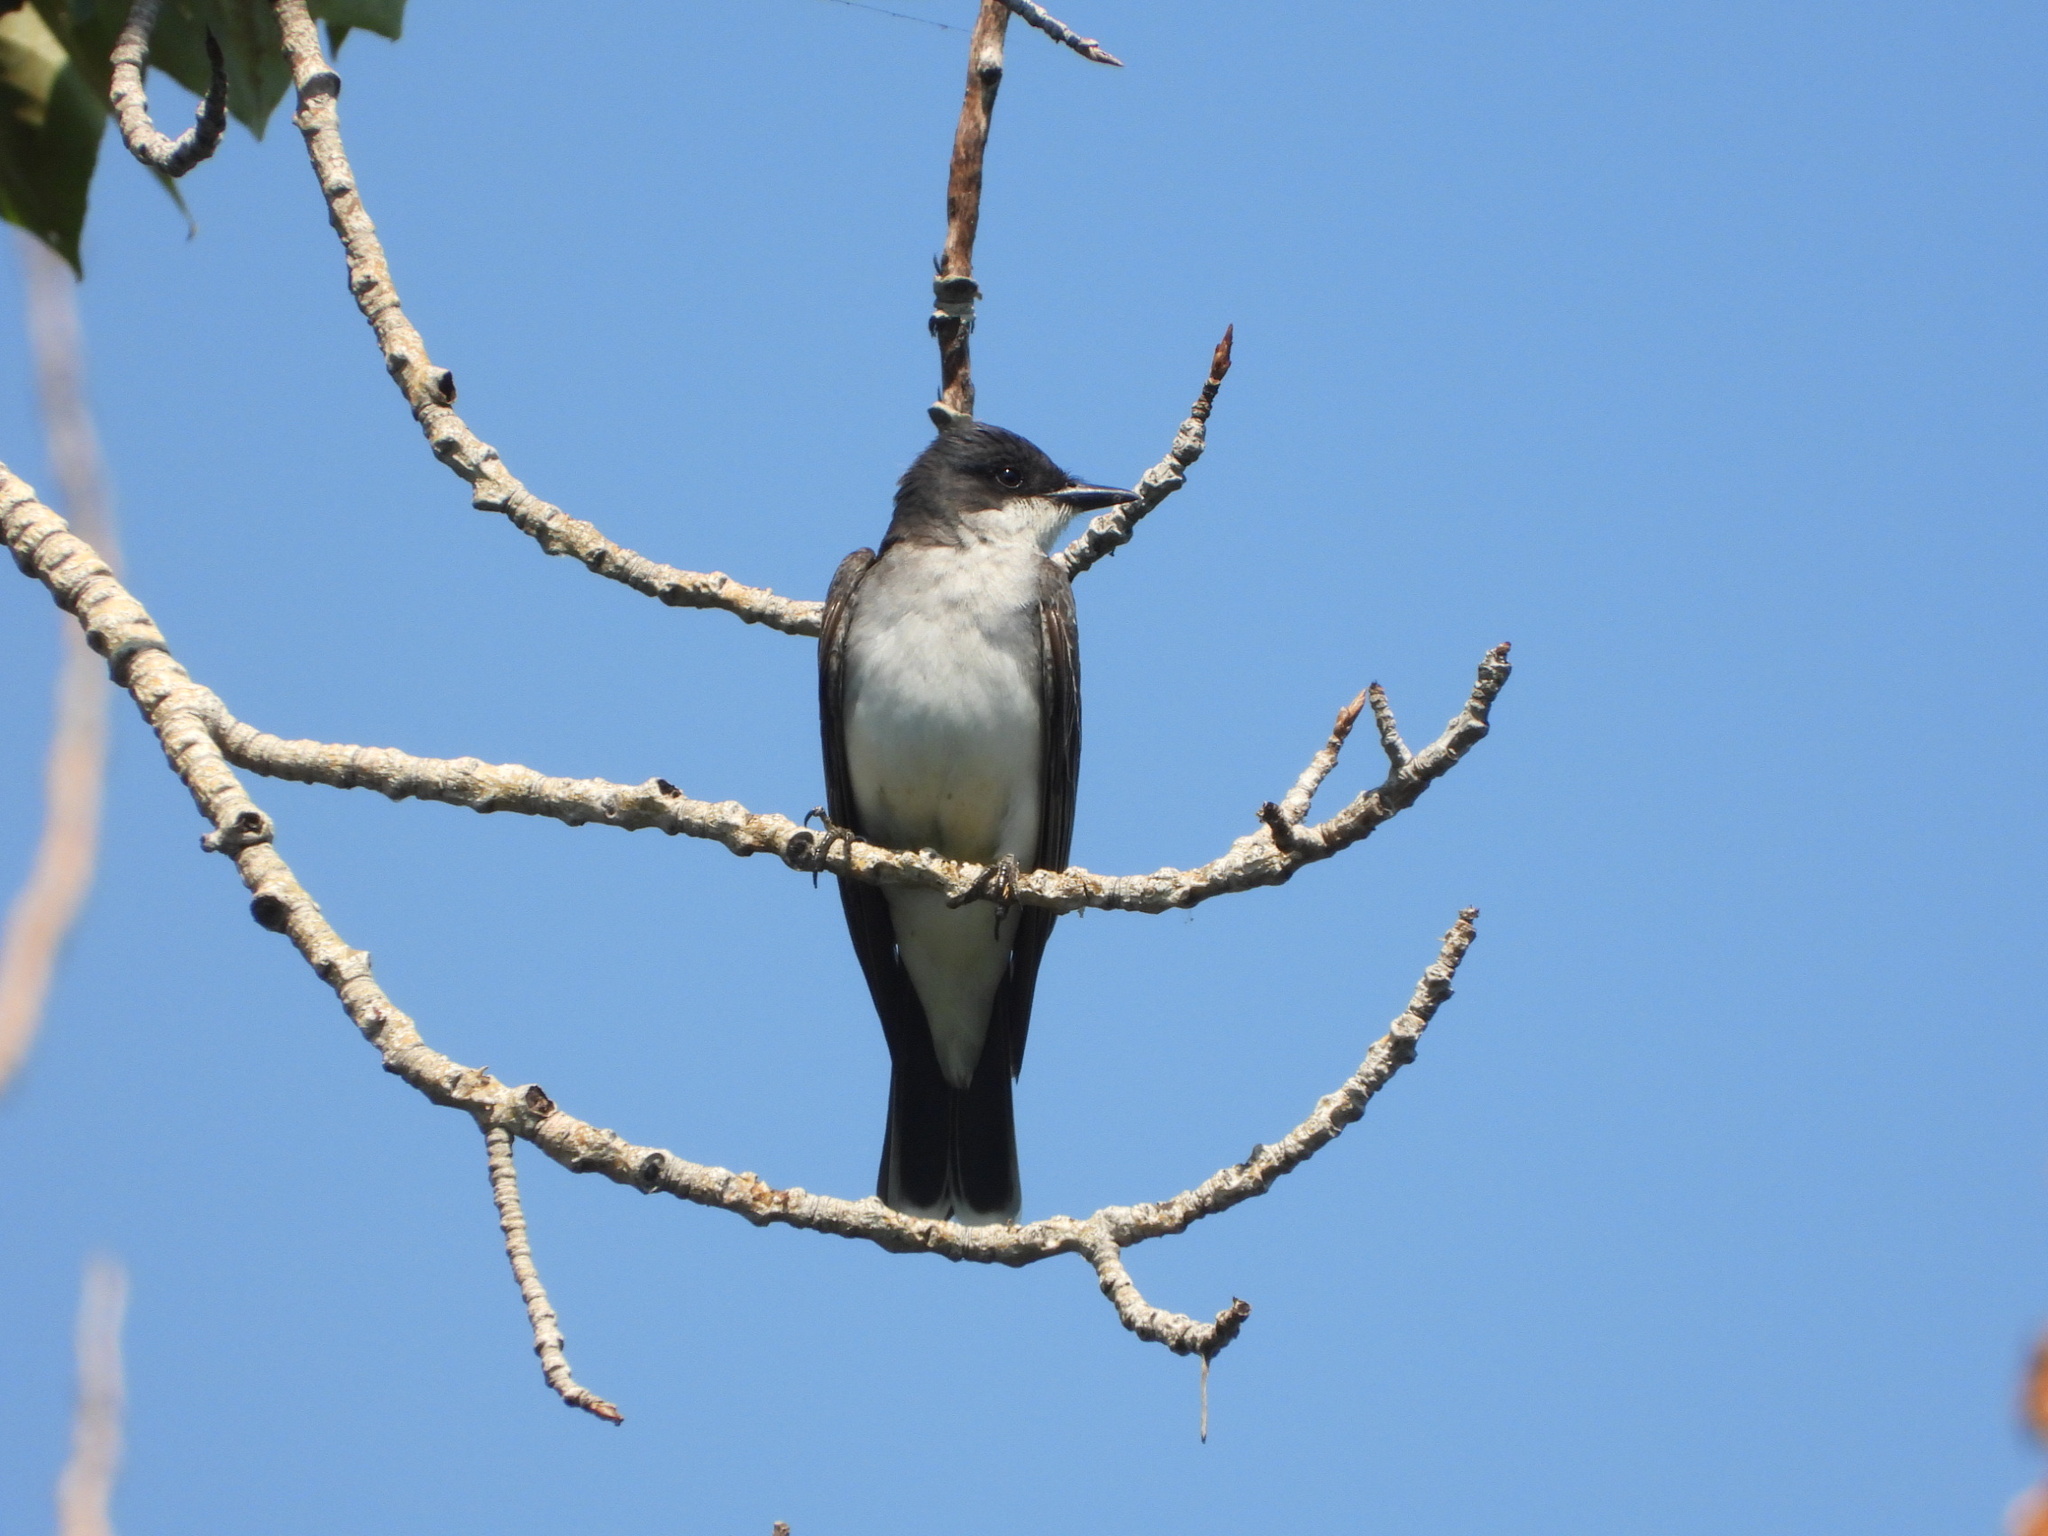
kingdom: Animalia
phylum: Chordata
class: Aves
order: Passeriformes
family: Tyrannidae
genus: Tyrannus
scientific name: Tyrannus tyrannus
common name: Eastern kingbird
